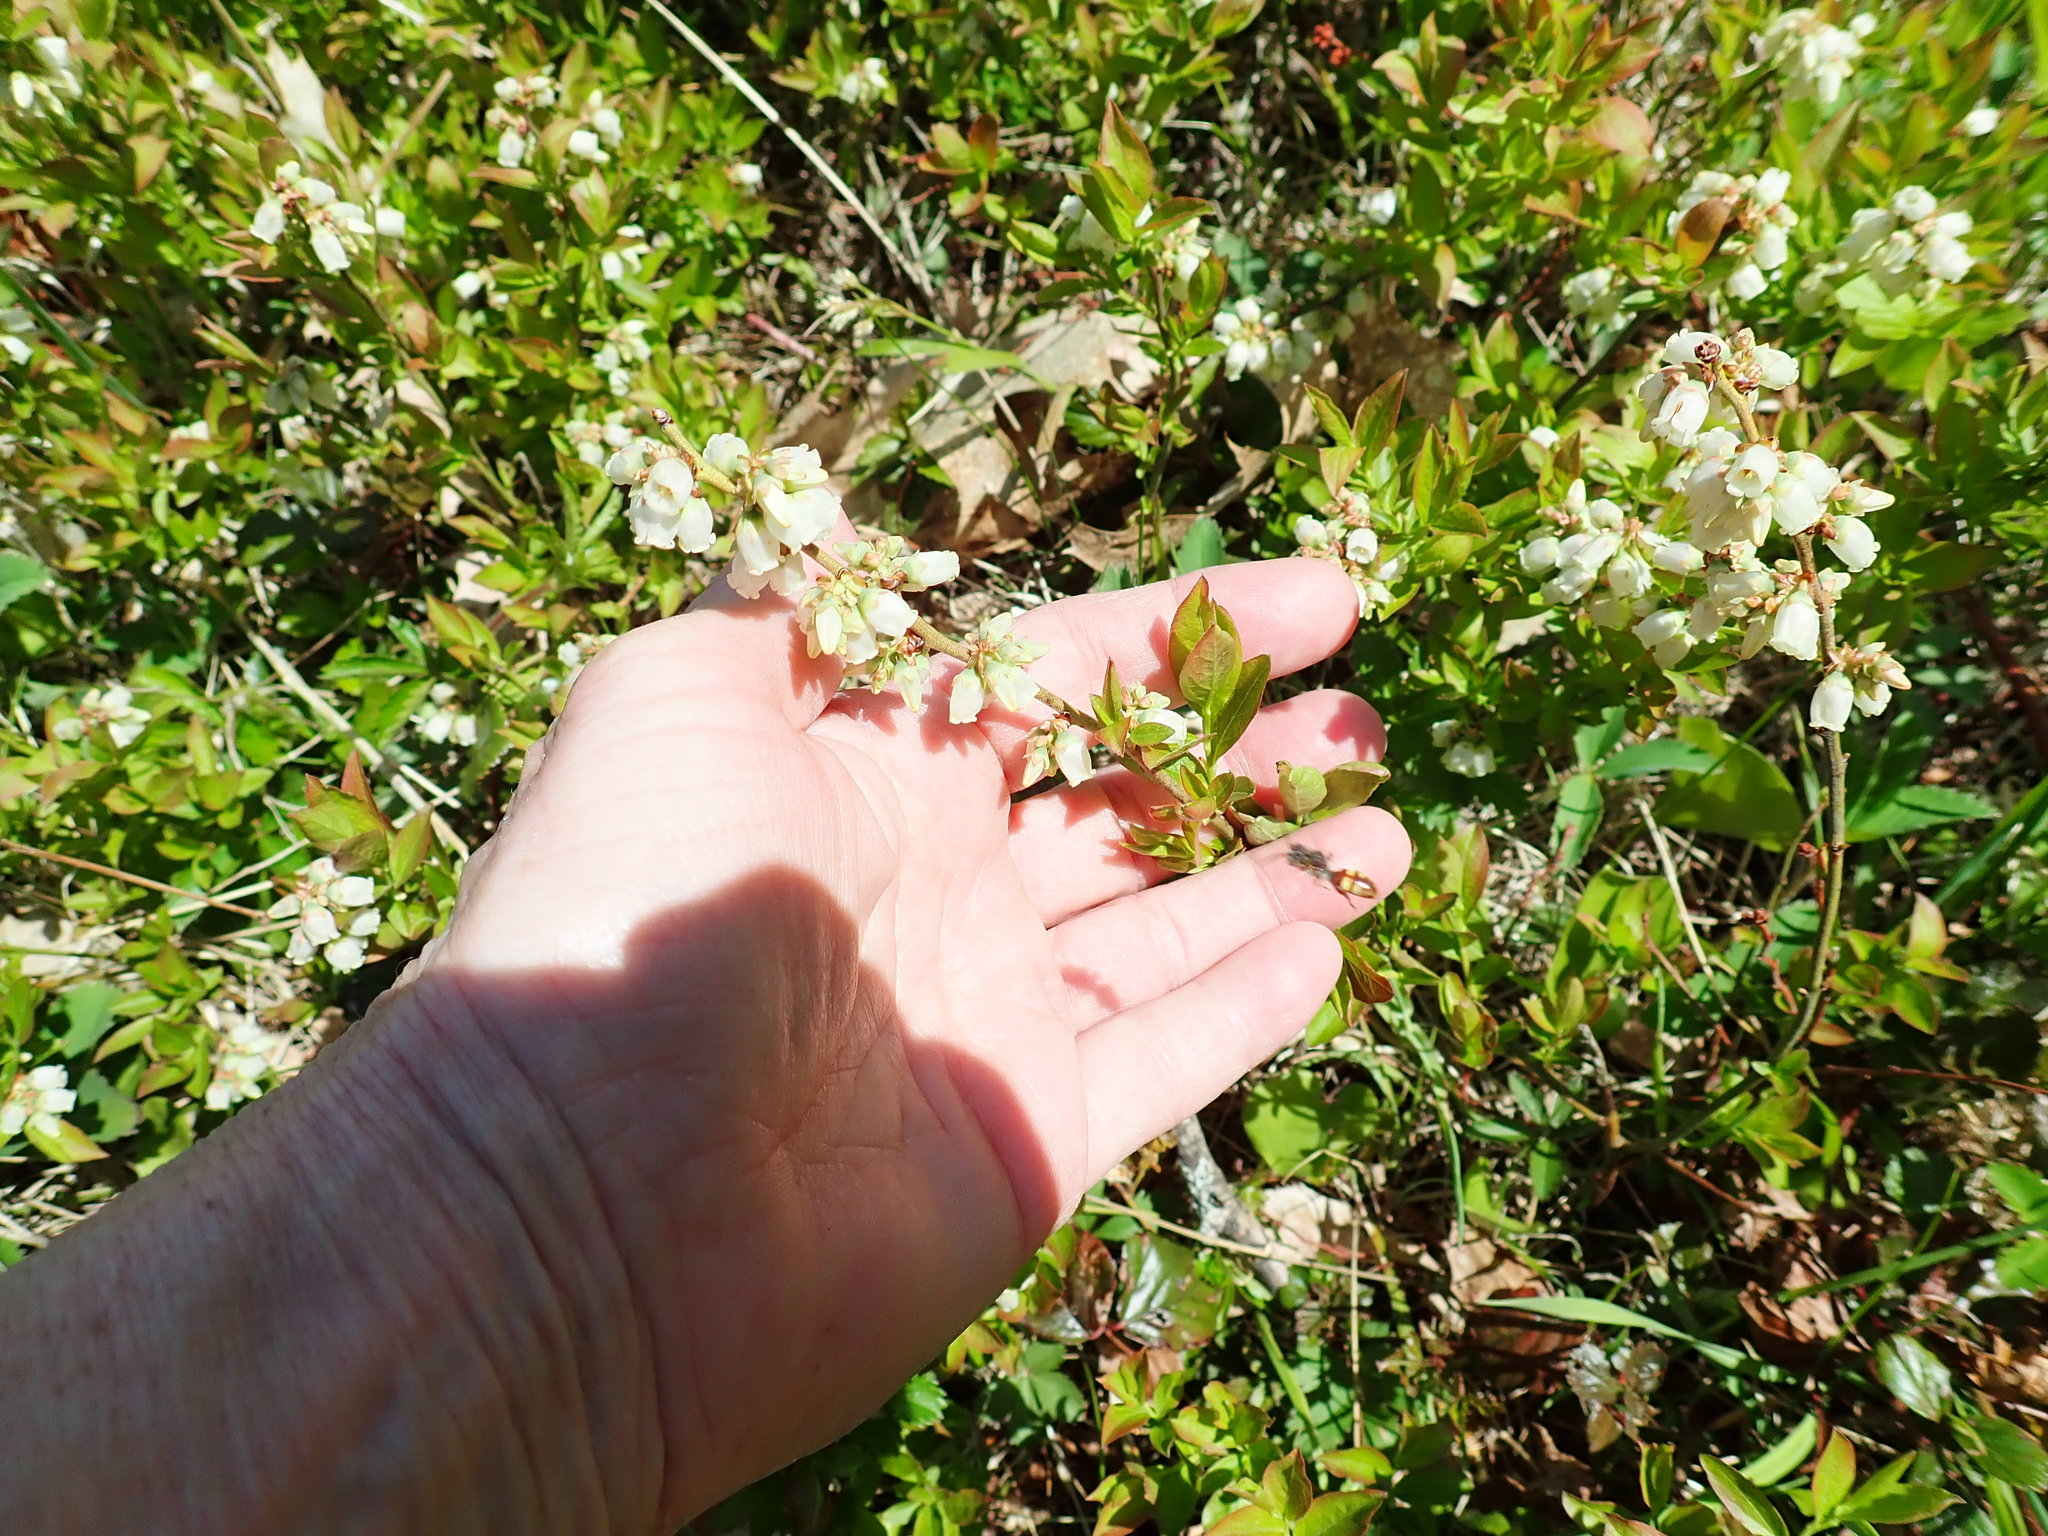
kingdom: Plantae
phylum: Tracheophyta
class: Magnoliopsida
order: Ericales
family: Ericaceae
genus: Vaccinium
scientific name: Vaccinium angustifolium
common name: Early lowbush blueberry
